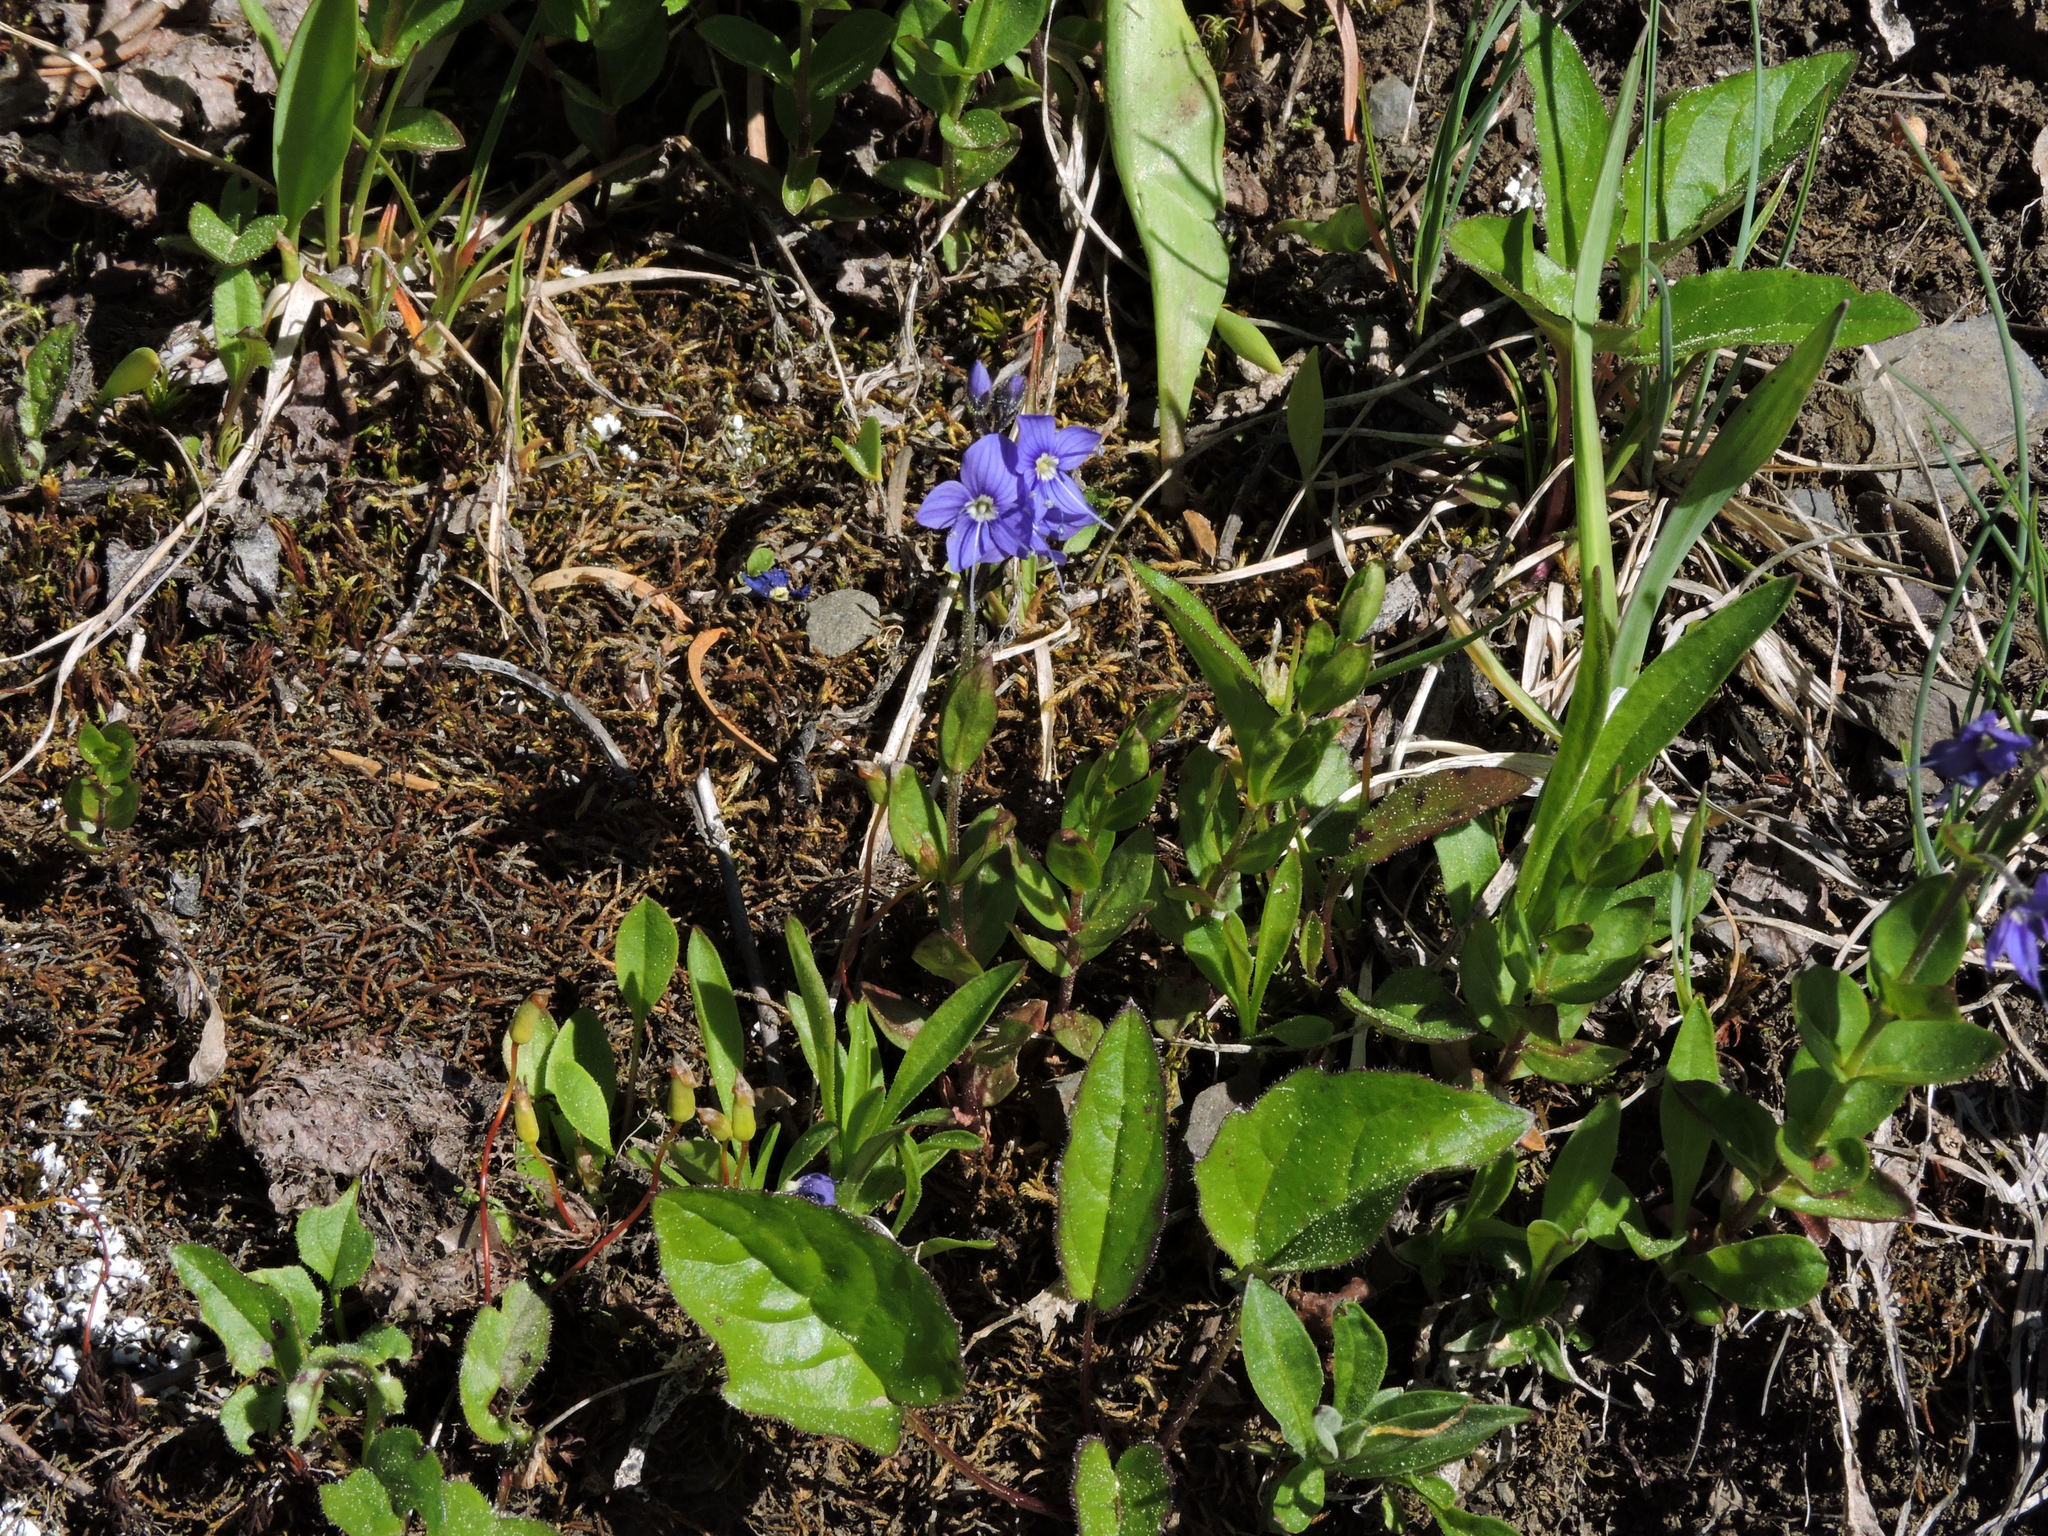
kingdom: Plantae
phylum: Tracheophyta
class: Magnoliopsida
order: Lamiales
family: Plantaginaceae
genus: Veronica
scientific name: Veronica cusickii
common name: Cusick's speedwell
